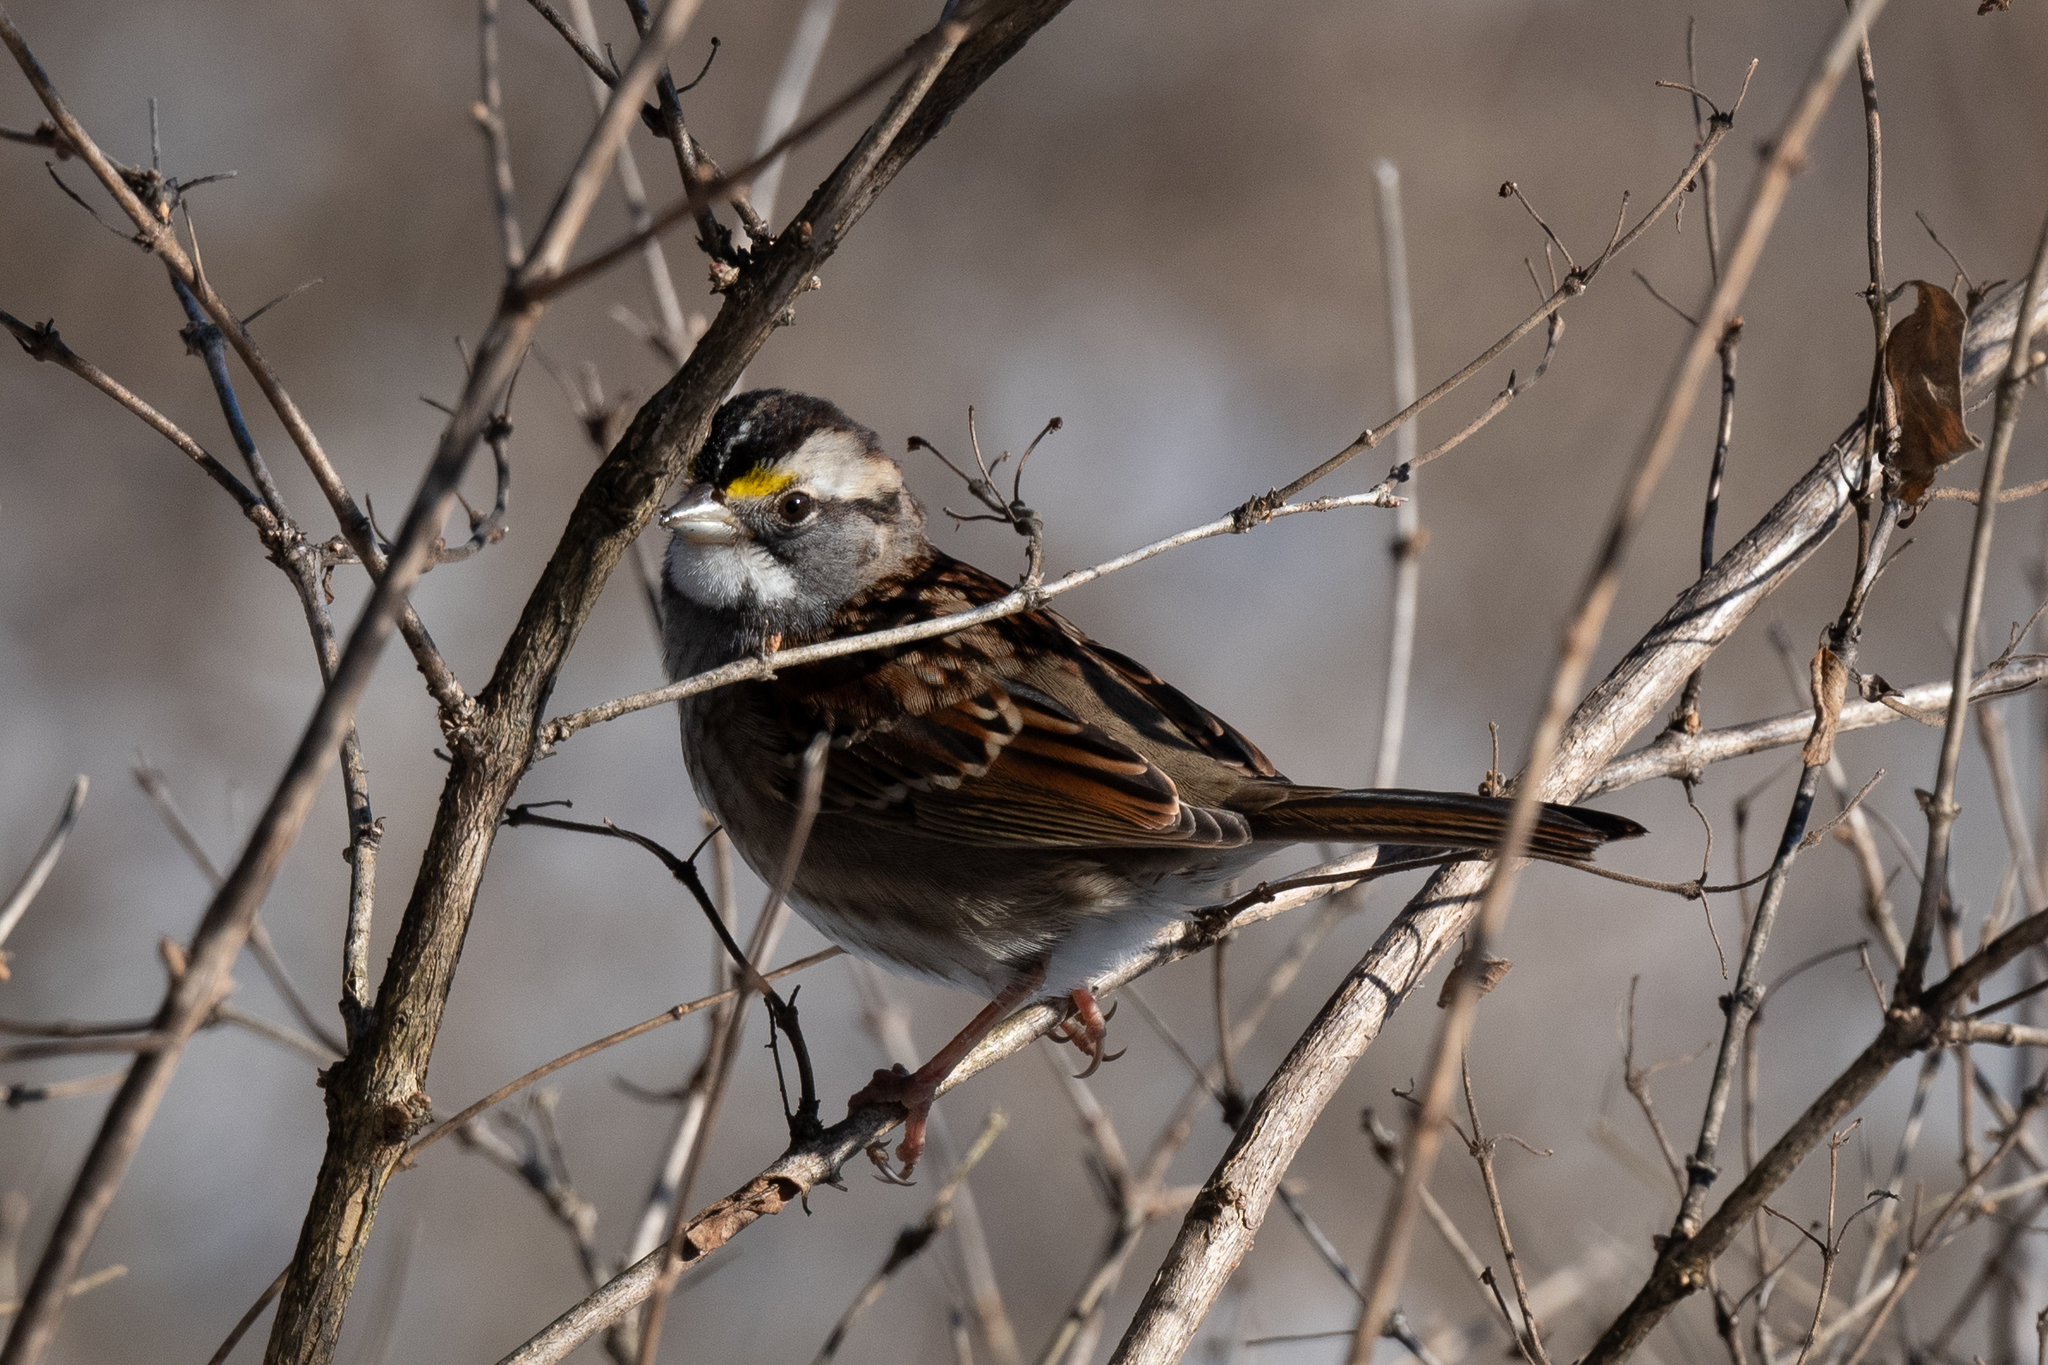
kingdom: Animalia
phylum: Chordata
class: Aves
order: Passeriformes
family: Passerellidae
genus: Zonotrichia
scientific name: Zonotrichia albicollis
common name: White-throated sparrow
